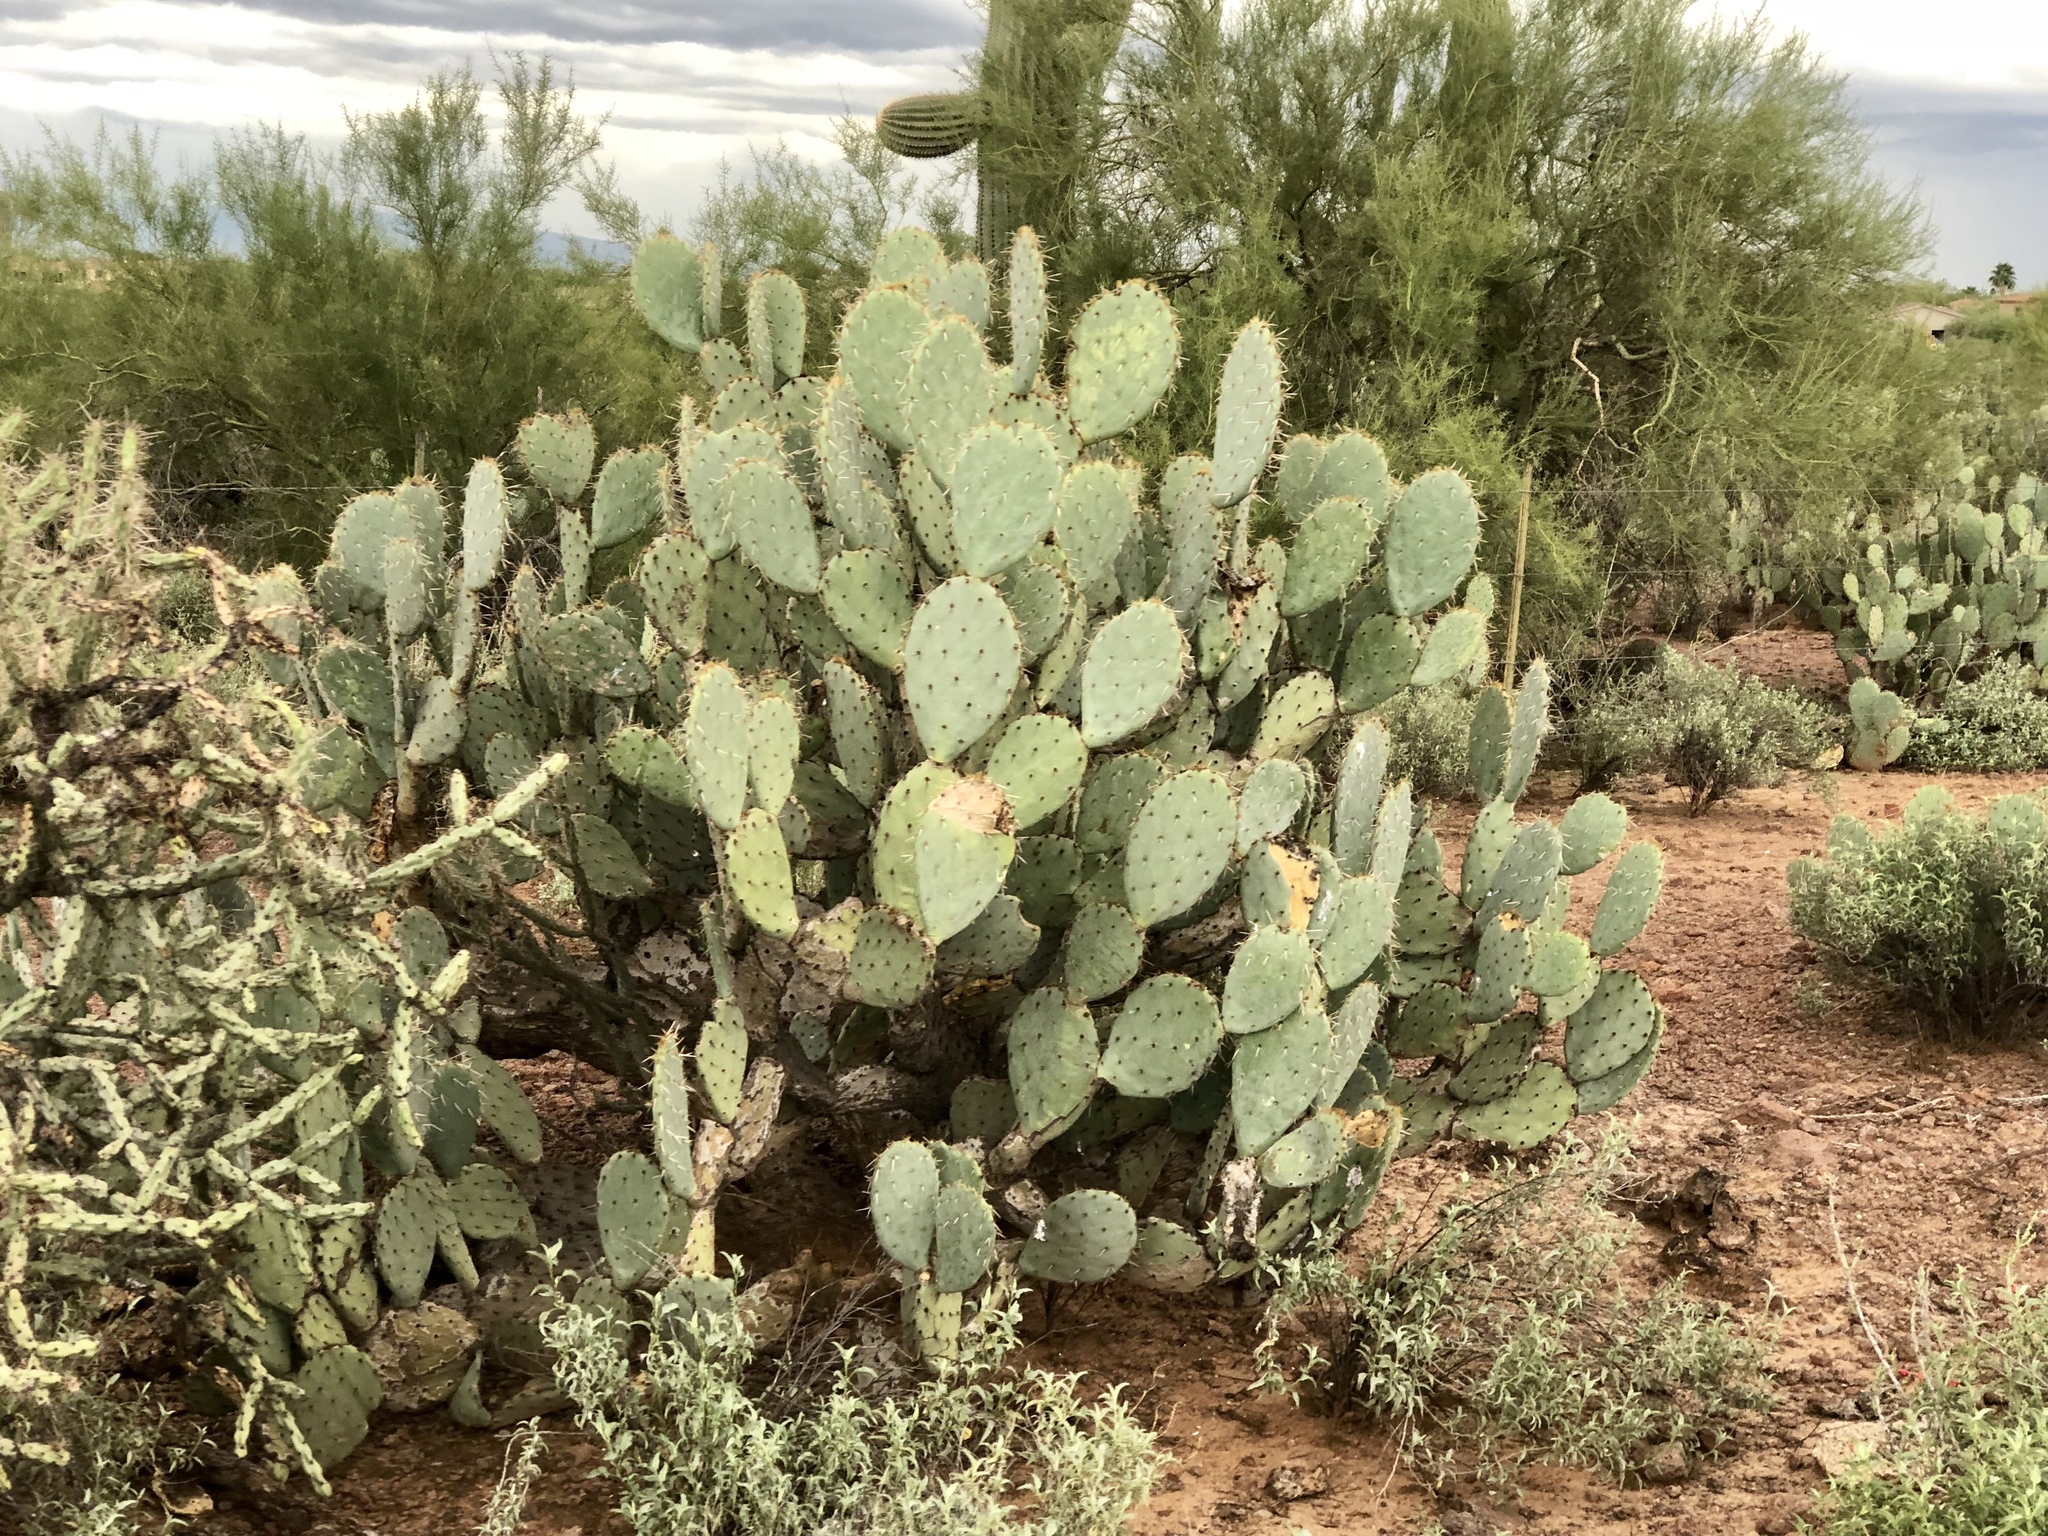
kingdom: Plantae
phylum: Tracheophyta
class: Magnoliopsida
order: Caryophyllales
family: Cactaceae
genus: Opuntia
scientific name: Opuntia engelmannii
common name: Cactus-apple
